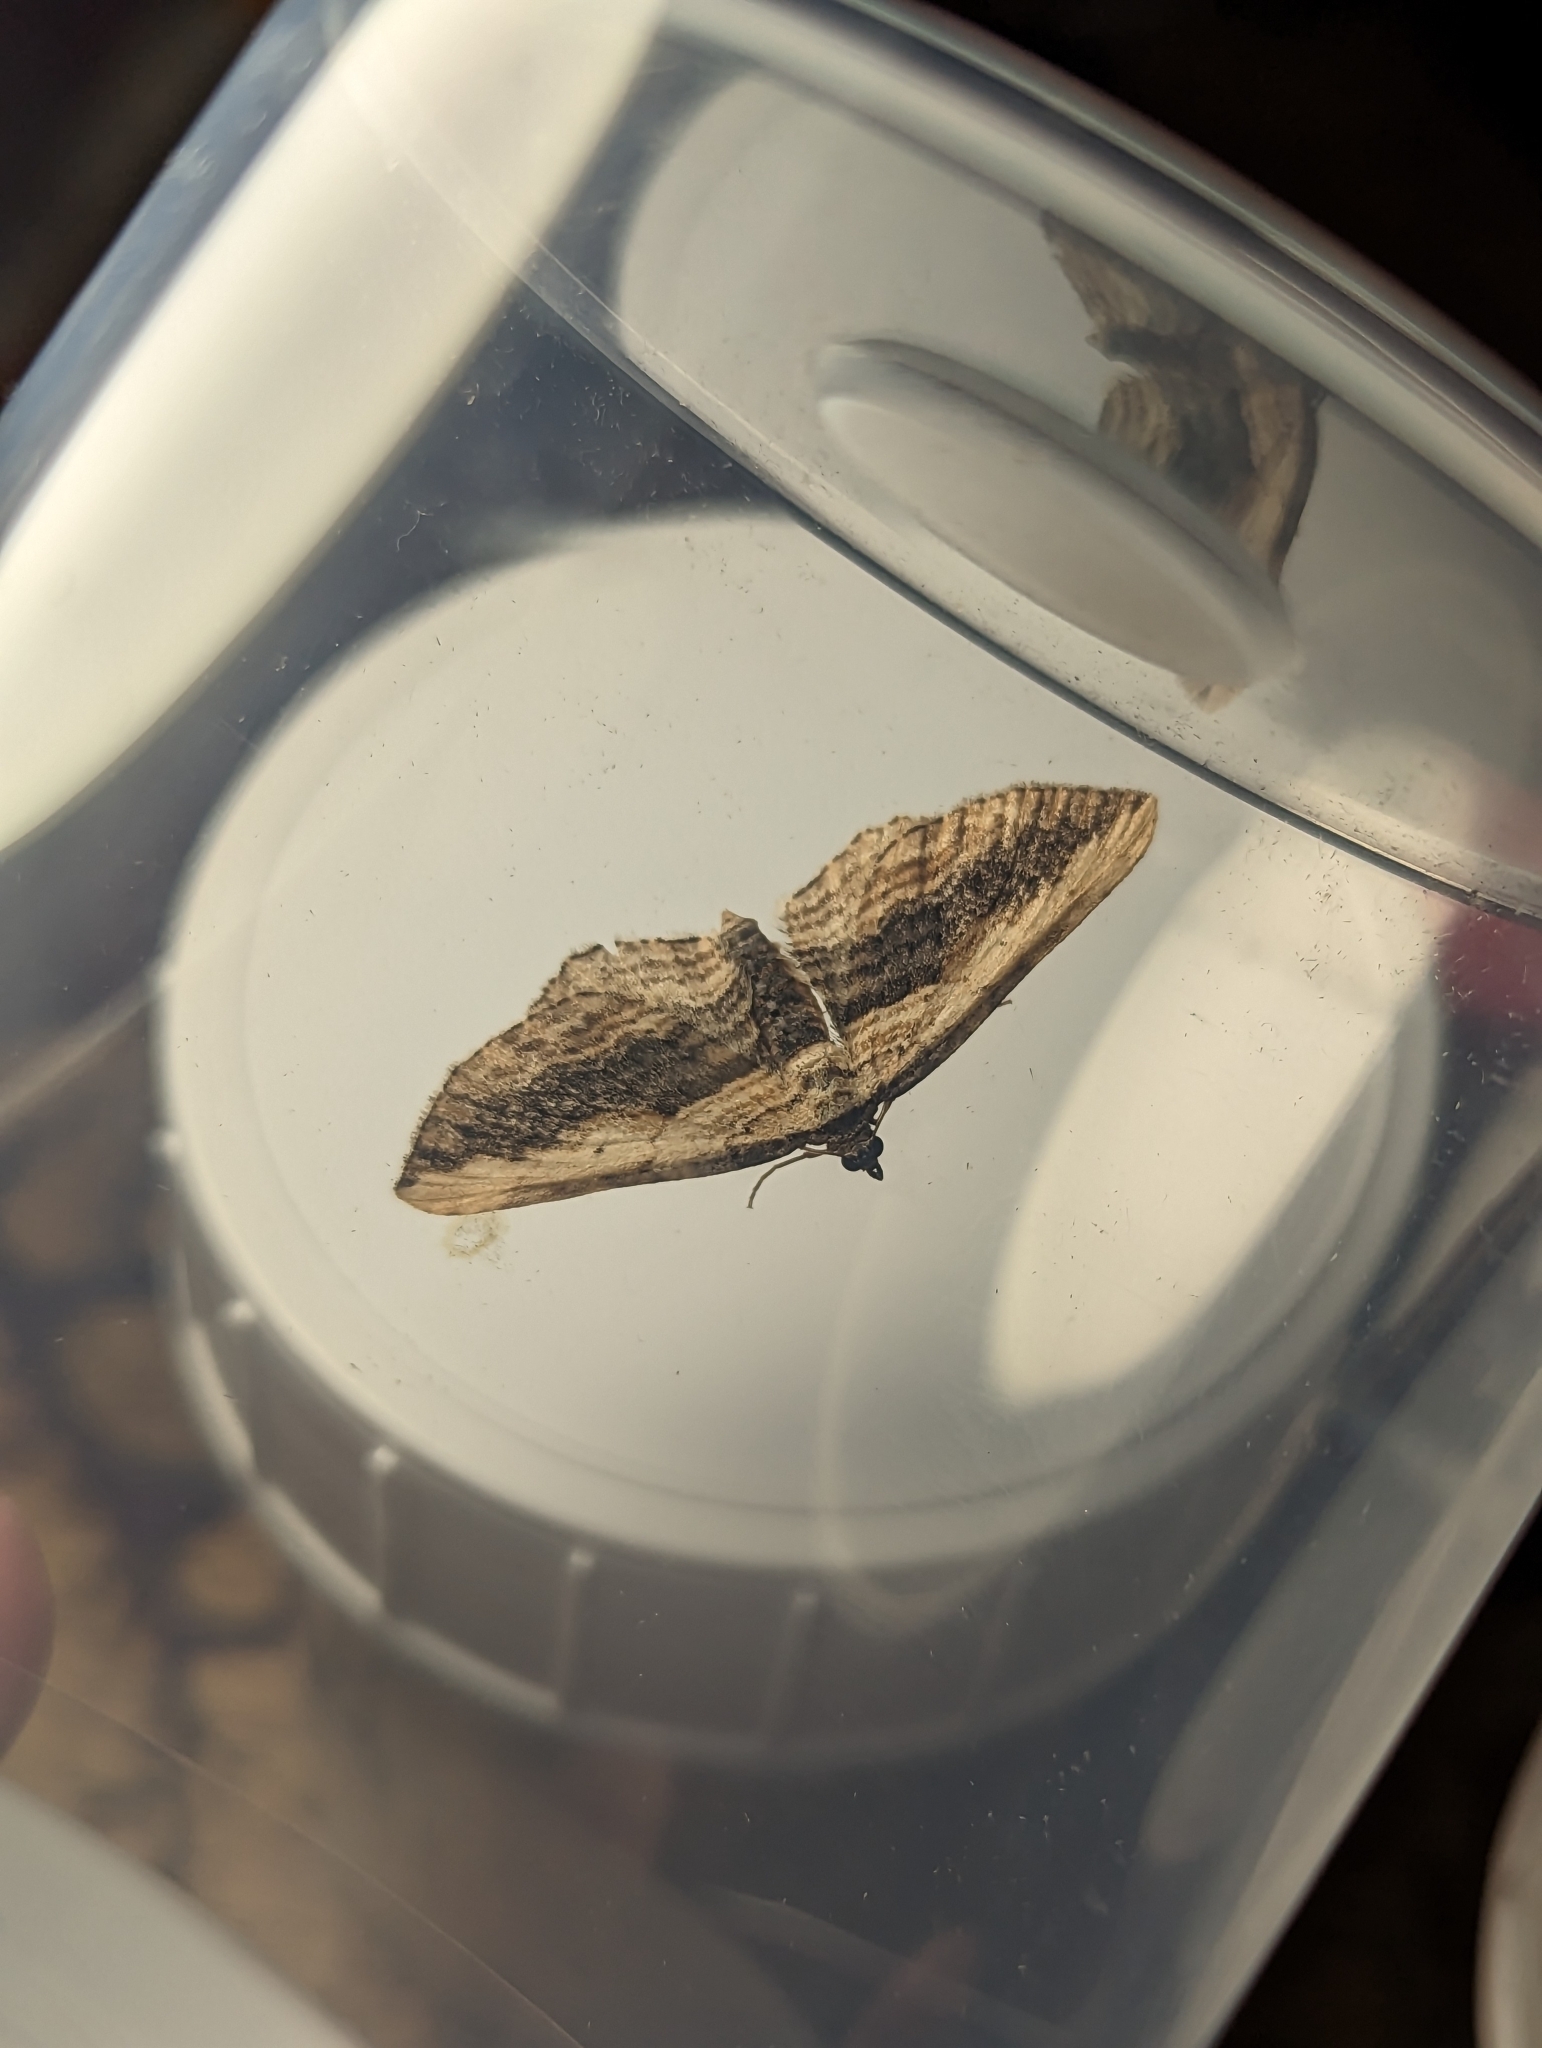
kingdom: Animalia
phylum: Arthropoda
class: Insecta
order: Lepidoptera
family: Geometridae
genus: Horisme
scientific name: Horisme vitalbata
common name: Small waved umber
